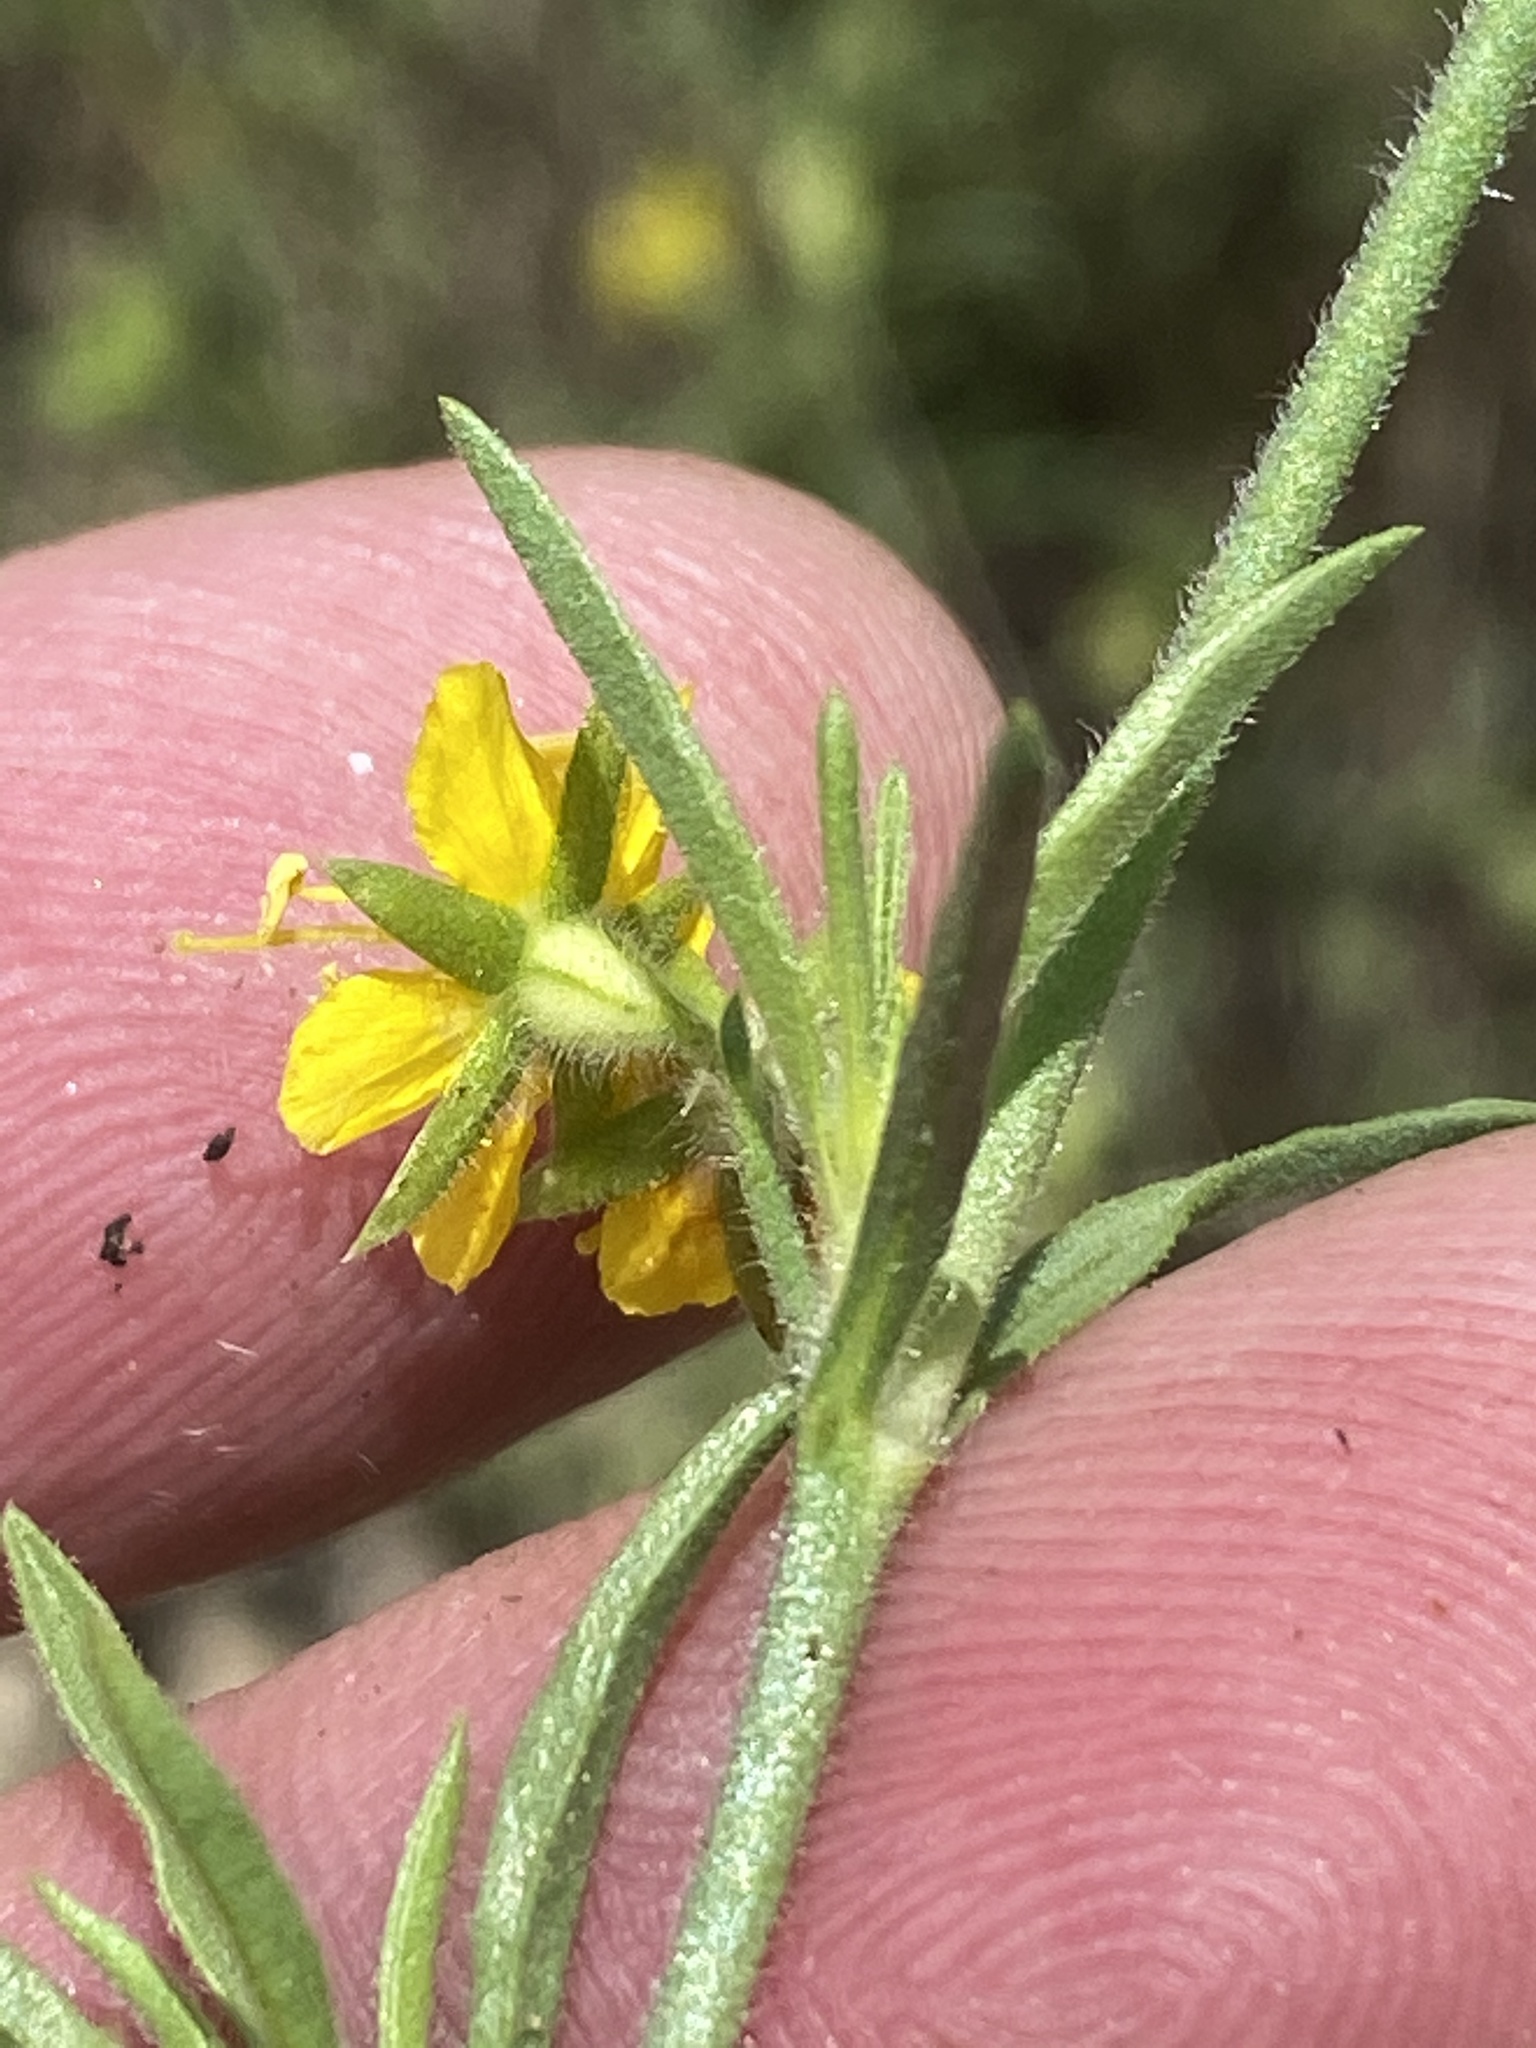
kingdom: Plantae
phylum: Tracheophyta
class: Magnoliopsida
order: Vahliales
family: Vahliaceae
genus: Vahlia
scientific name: Vahlia capensis
